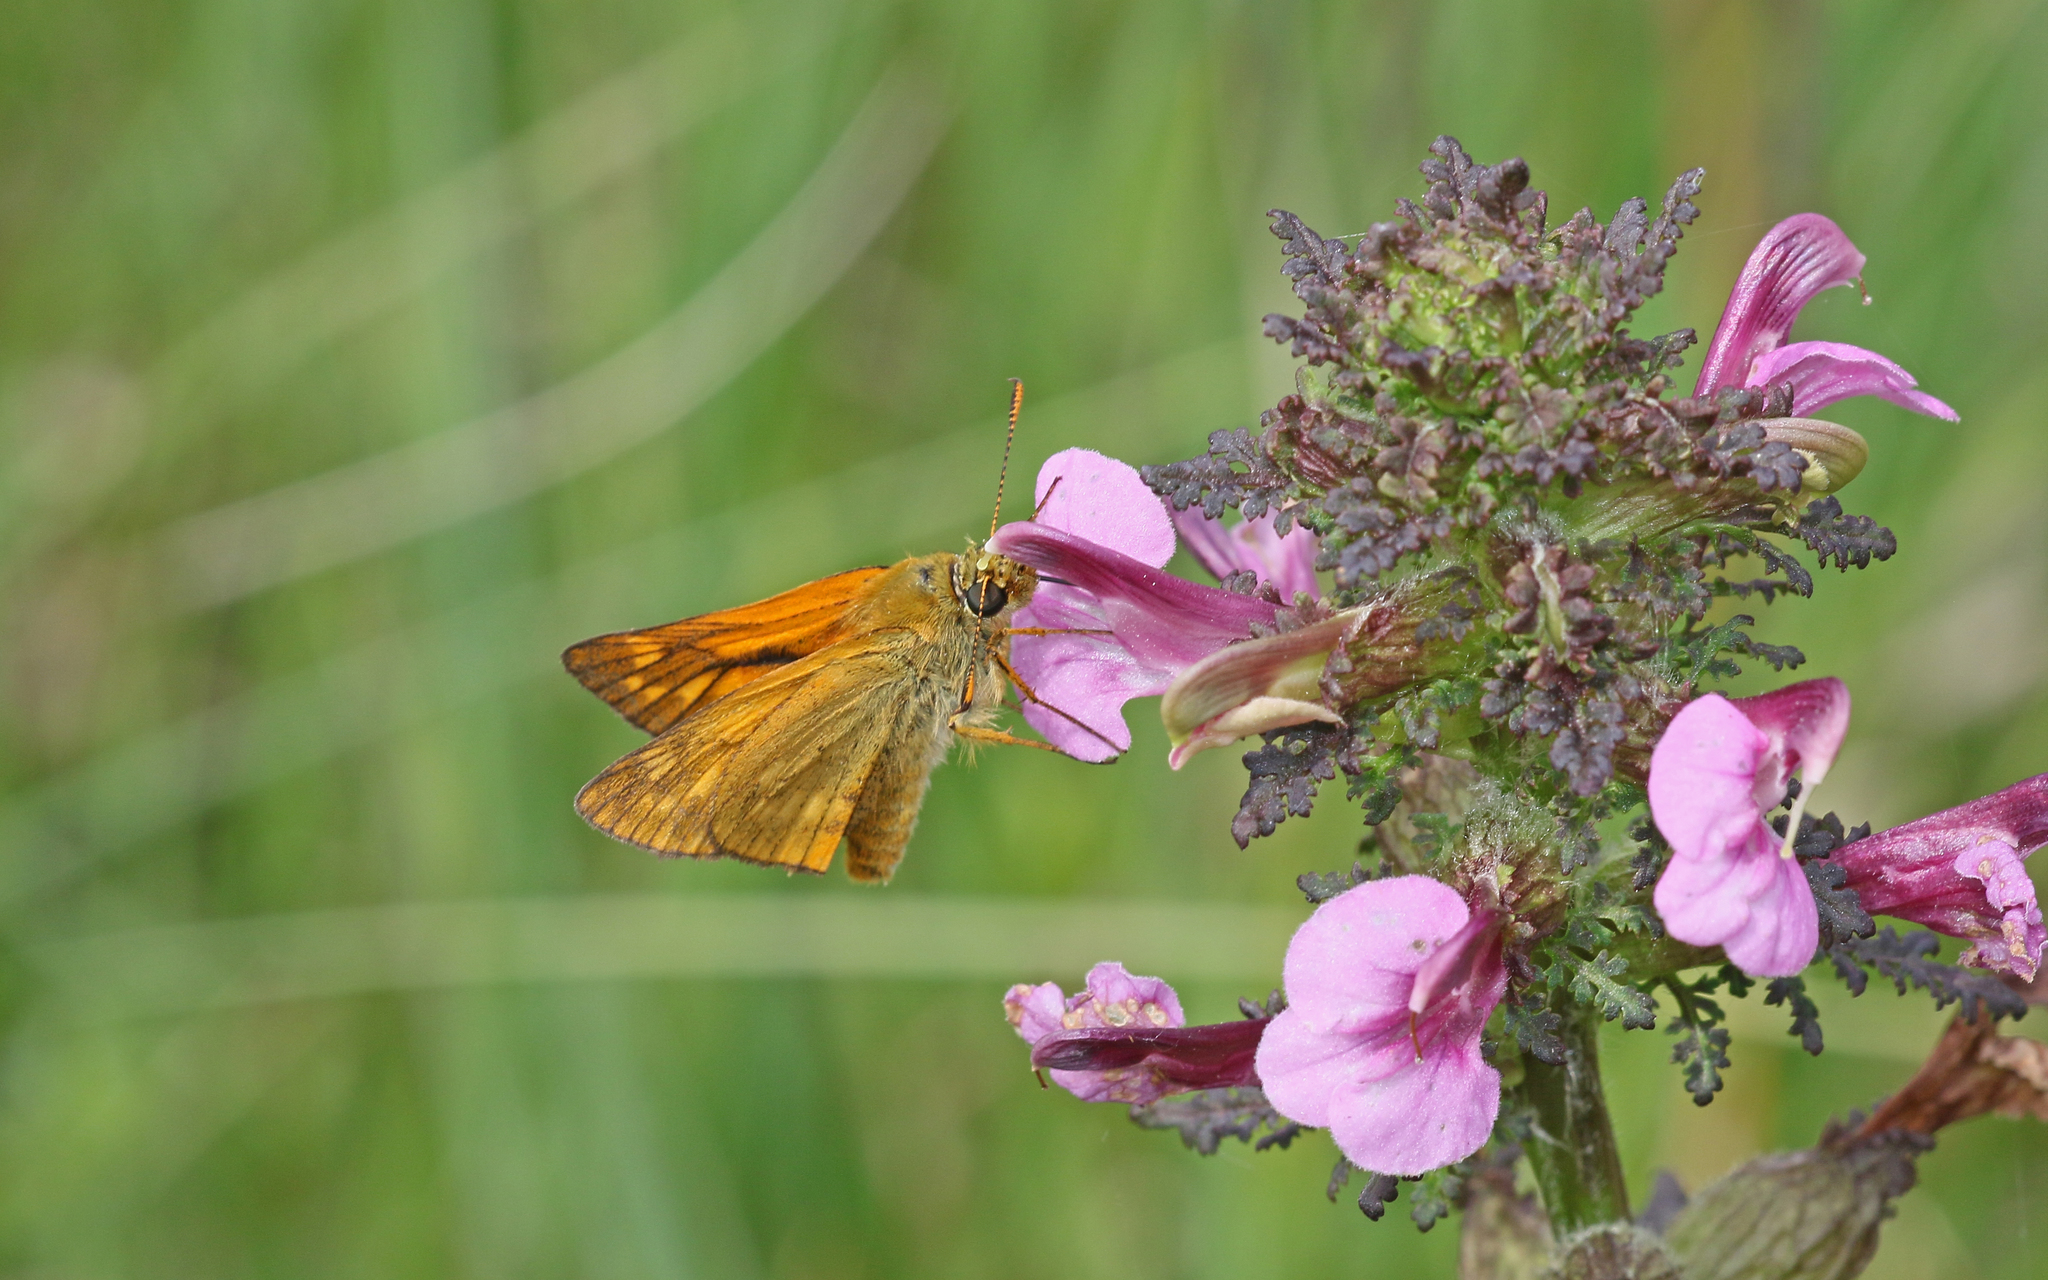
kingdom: Animalia
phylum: Arthropoda
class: Insecta
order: Lepidoptera
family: Hesperiidae
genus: Ochlodes
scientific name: Ochlodes venata
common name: Large skipper
